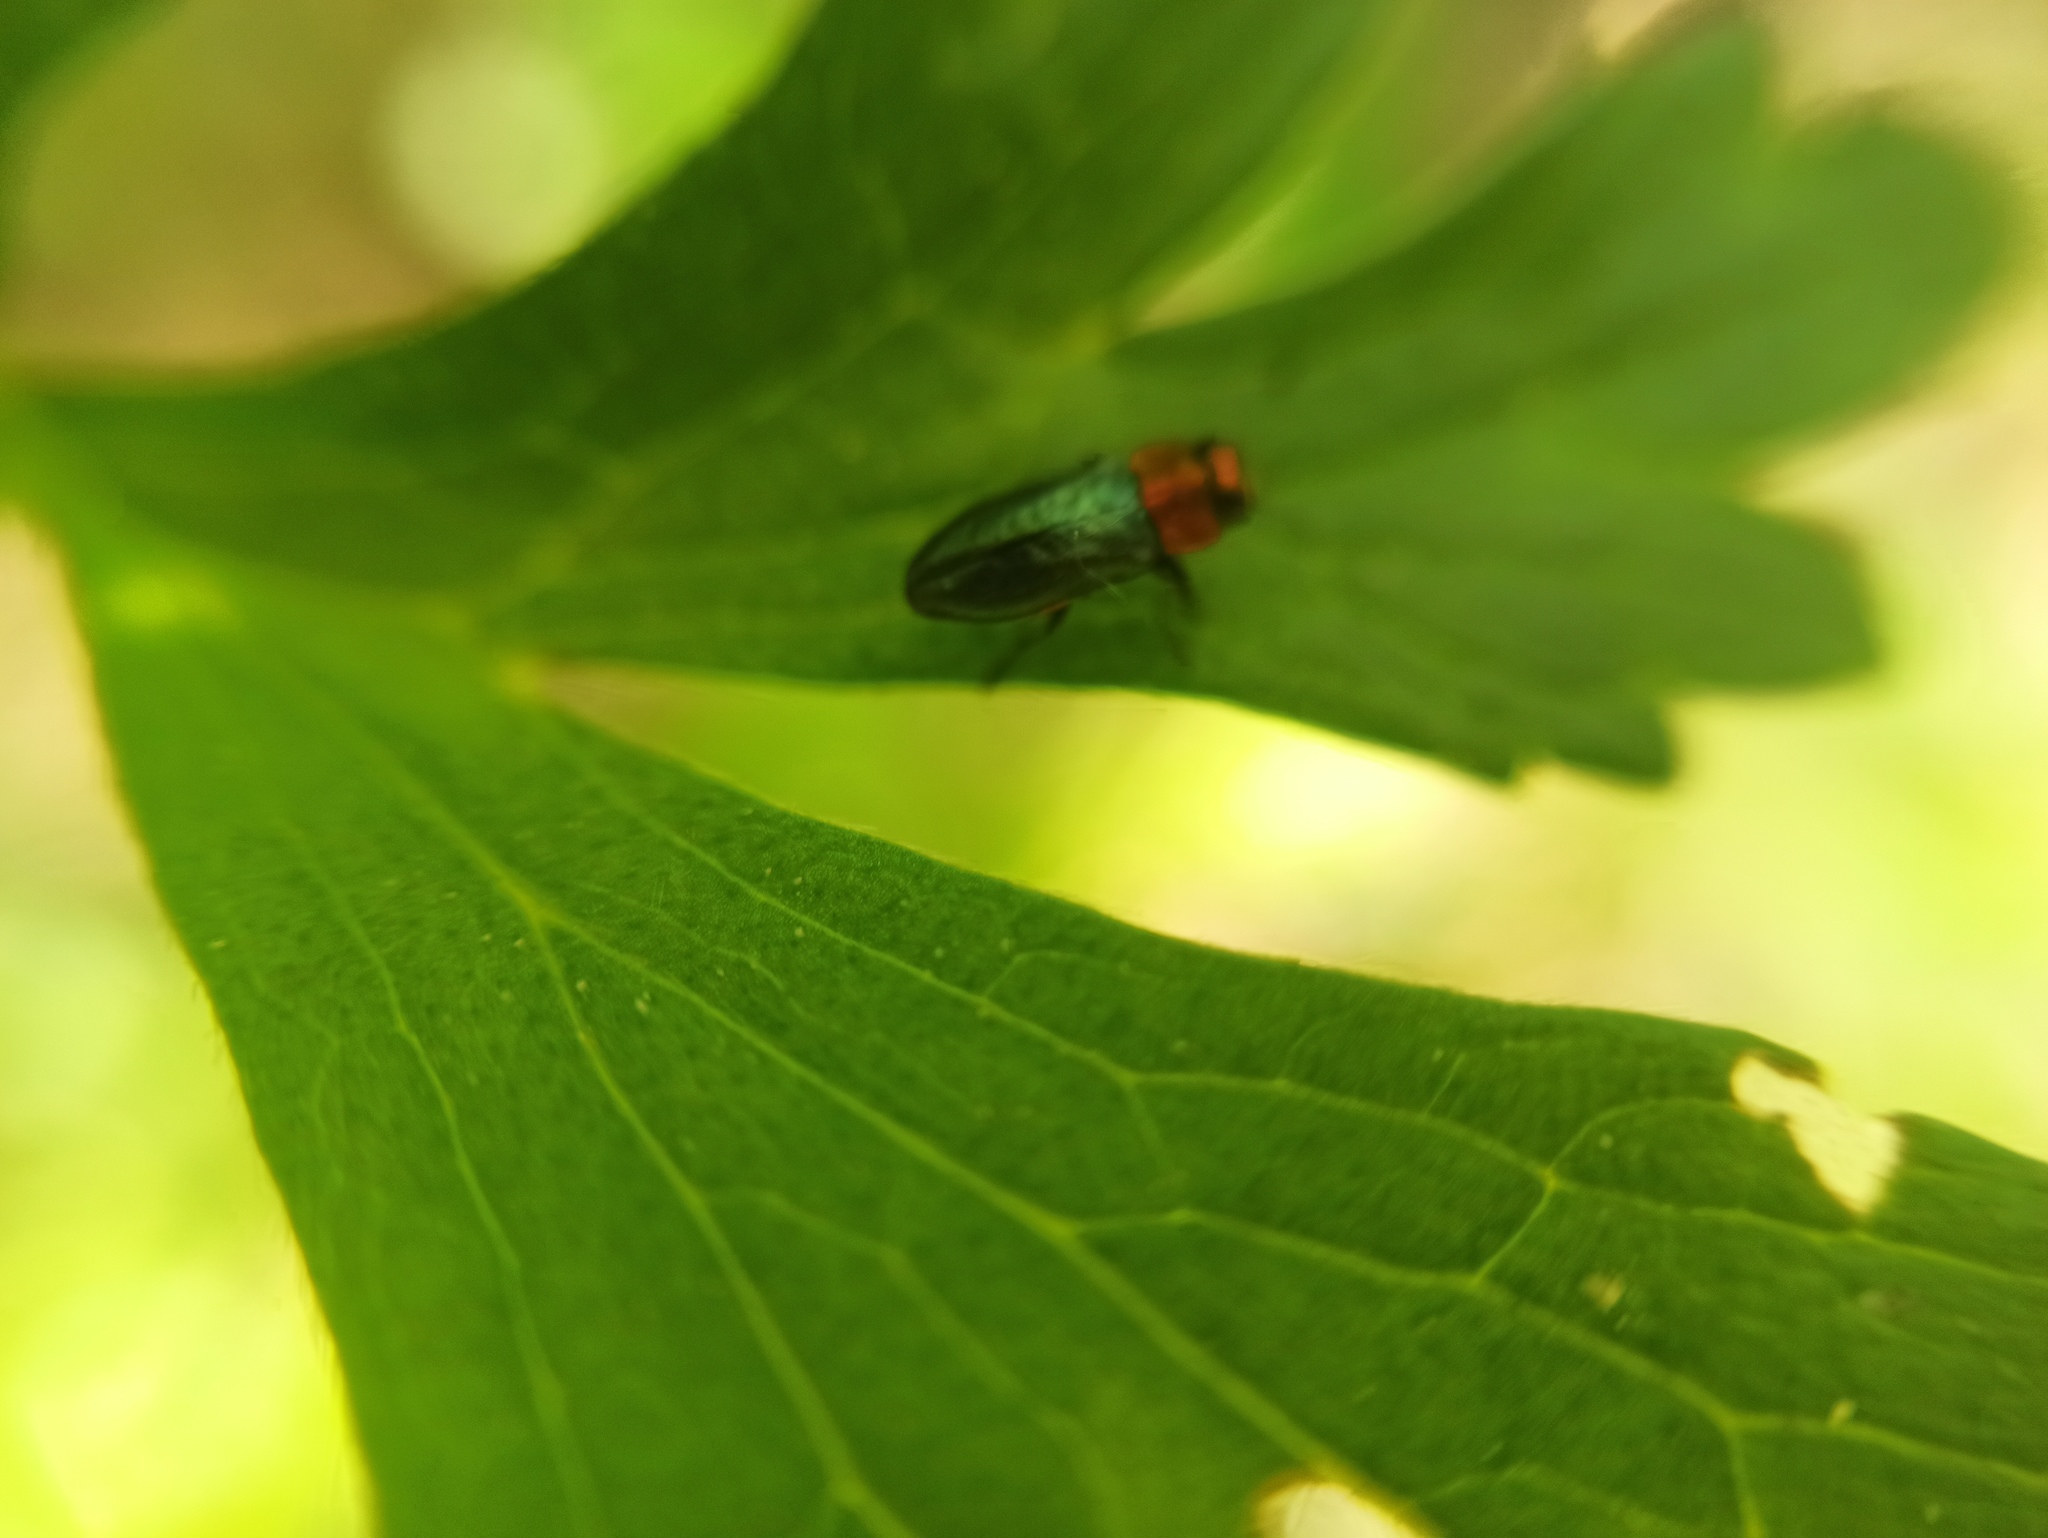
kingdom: Animalia
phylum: Arthropoda
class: Insecta
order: Coleoptera
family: Buprestidae
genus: Anthaxia
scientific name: Anthaxia nitidula
